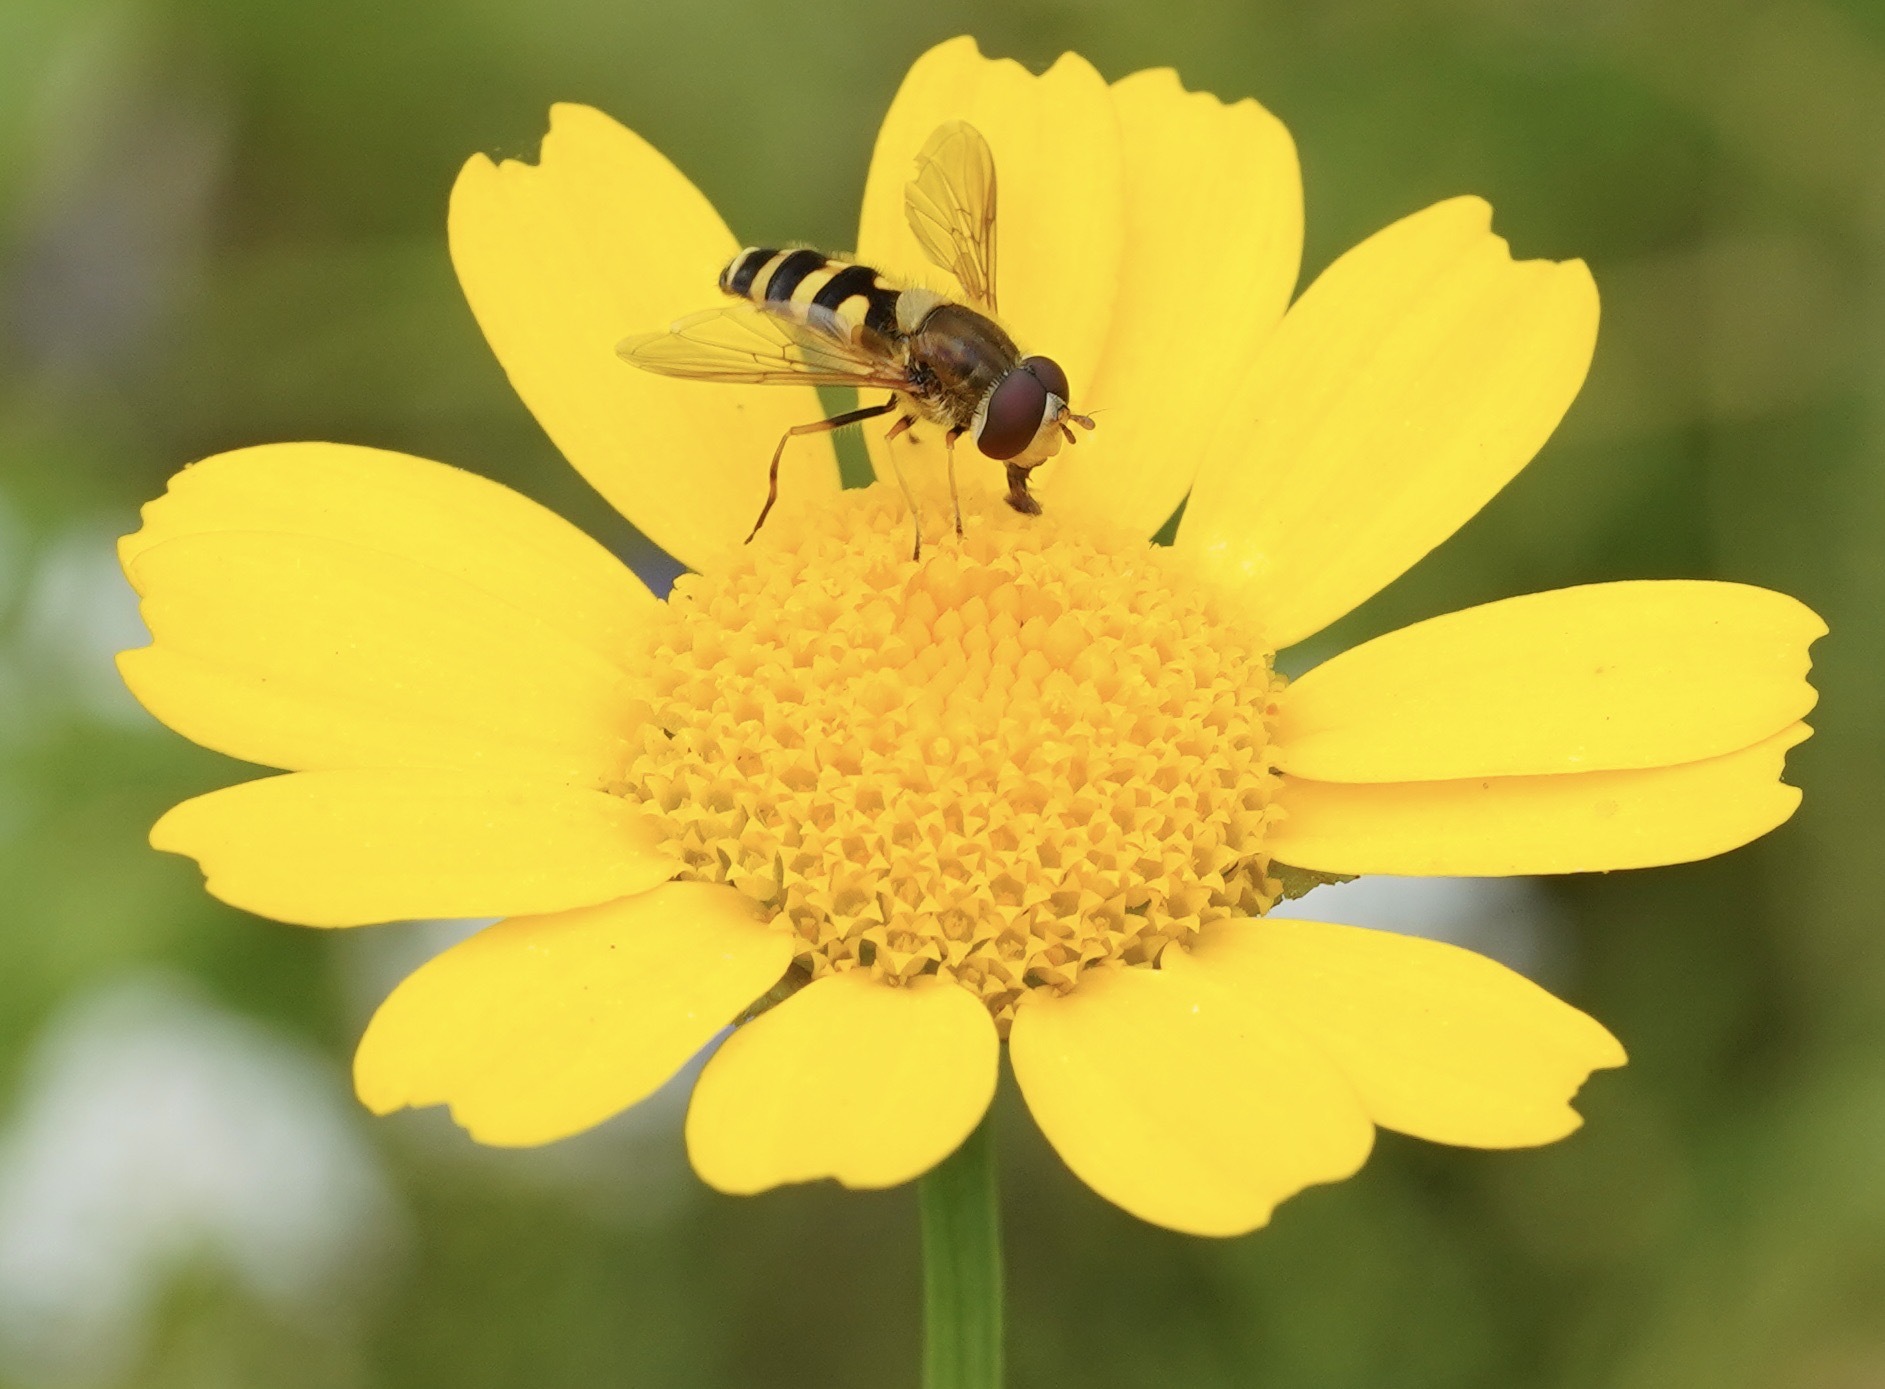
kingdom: Animalia
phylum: Arthropoda
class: Insecta
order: Diptera
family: Syrphidae
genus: Syrphus
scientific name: Syrphus
